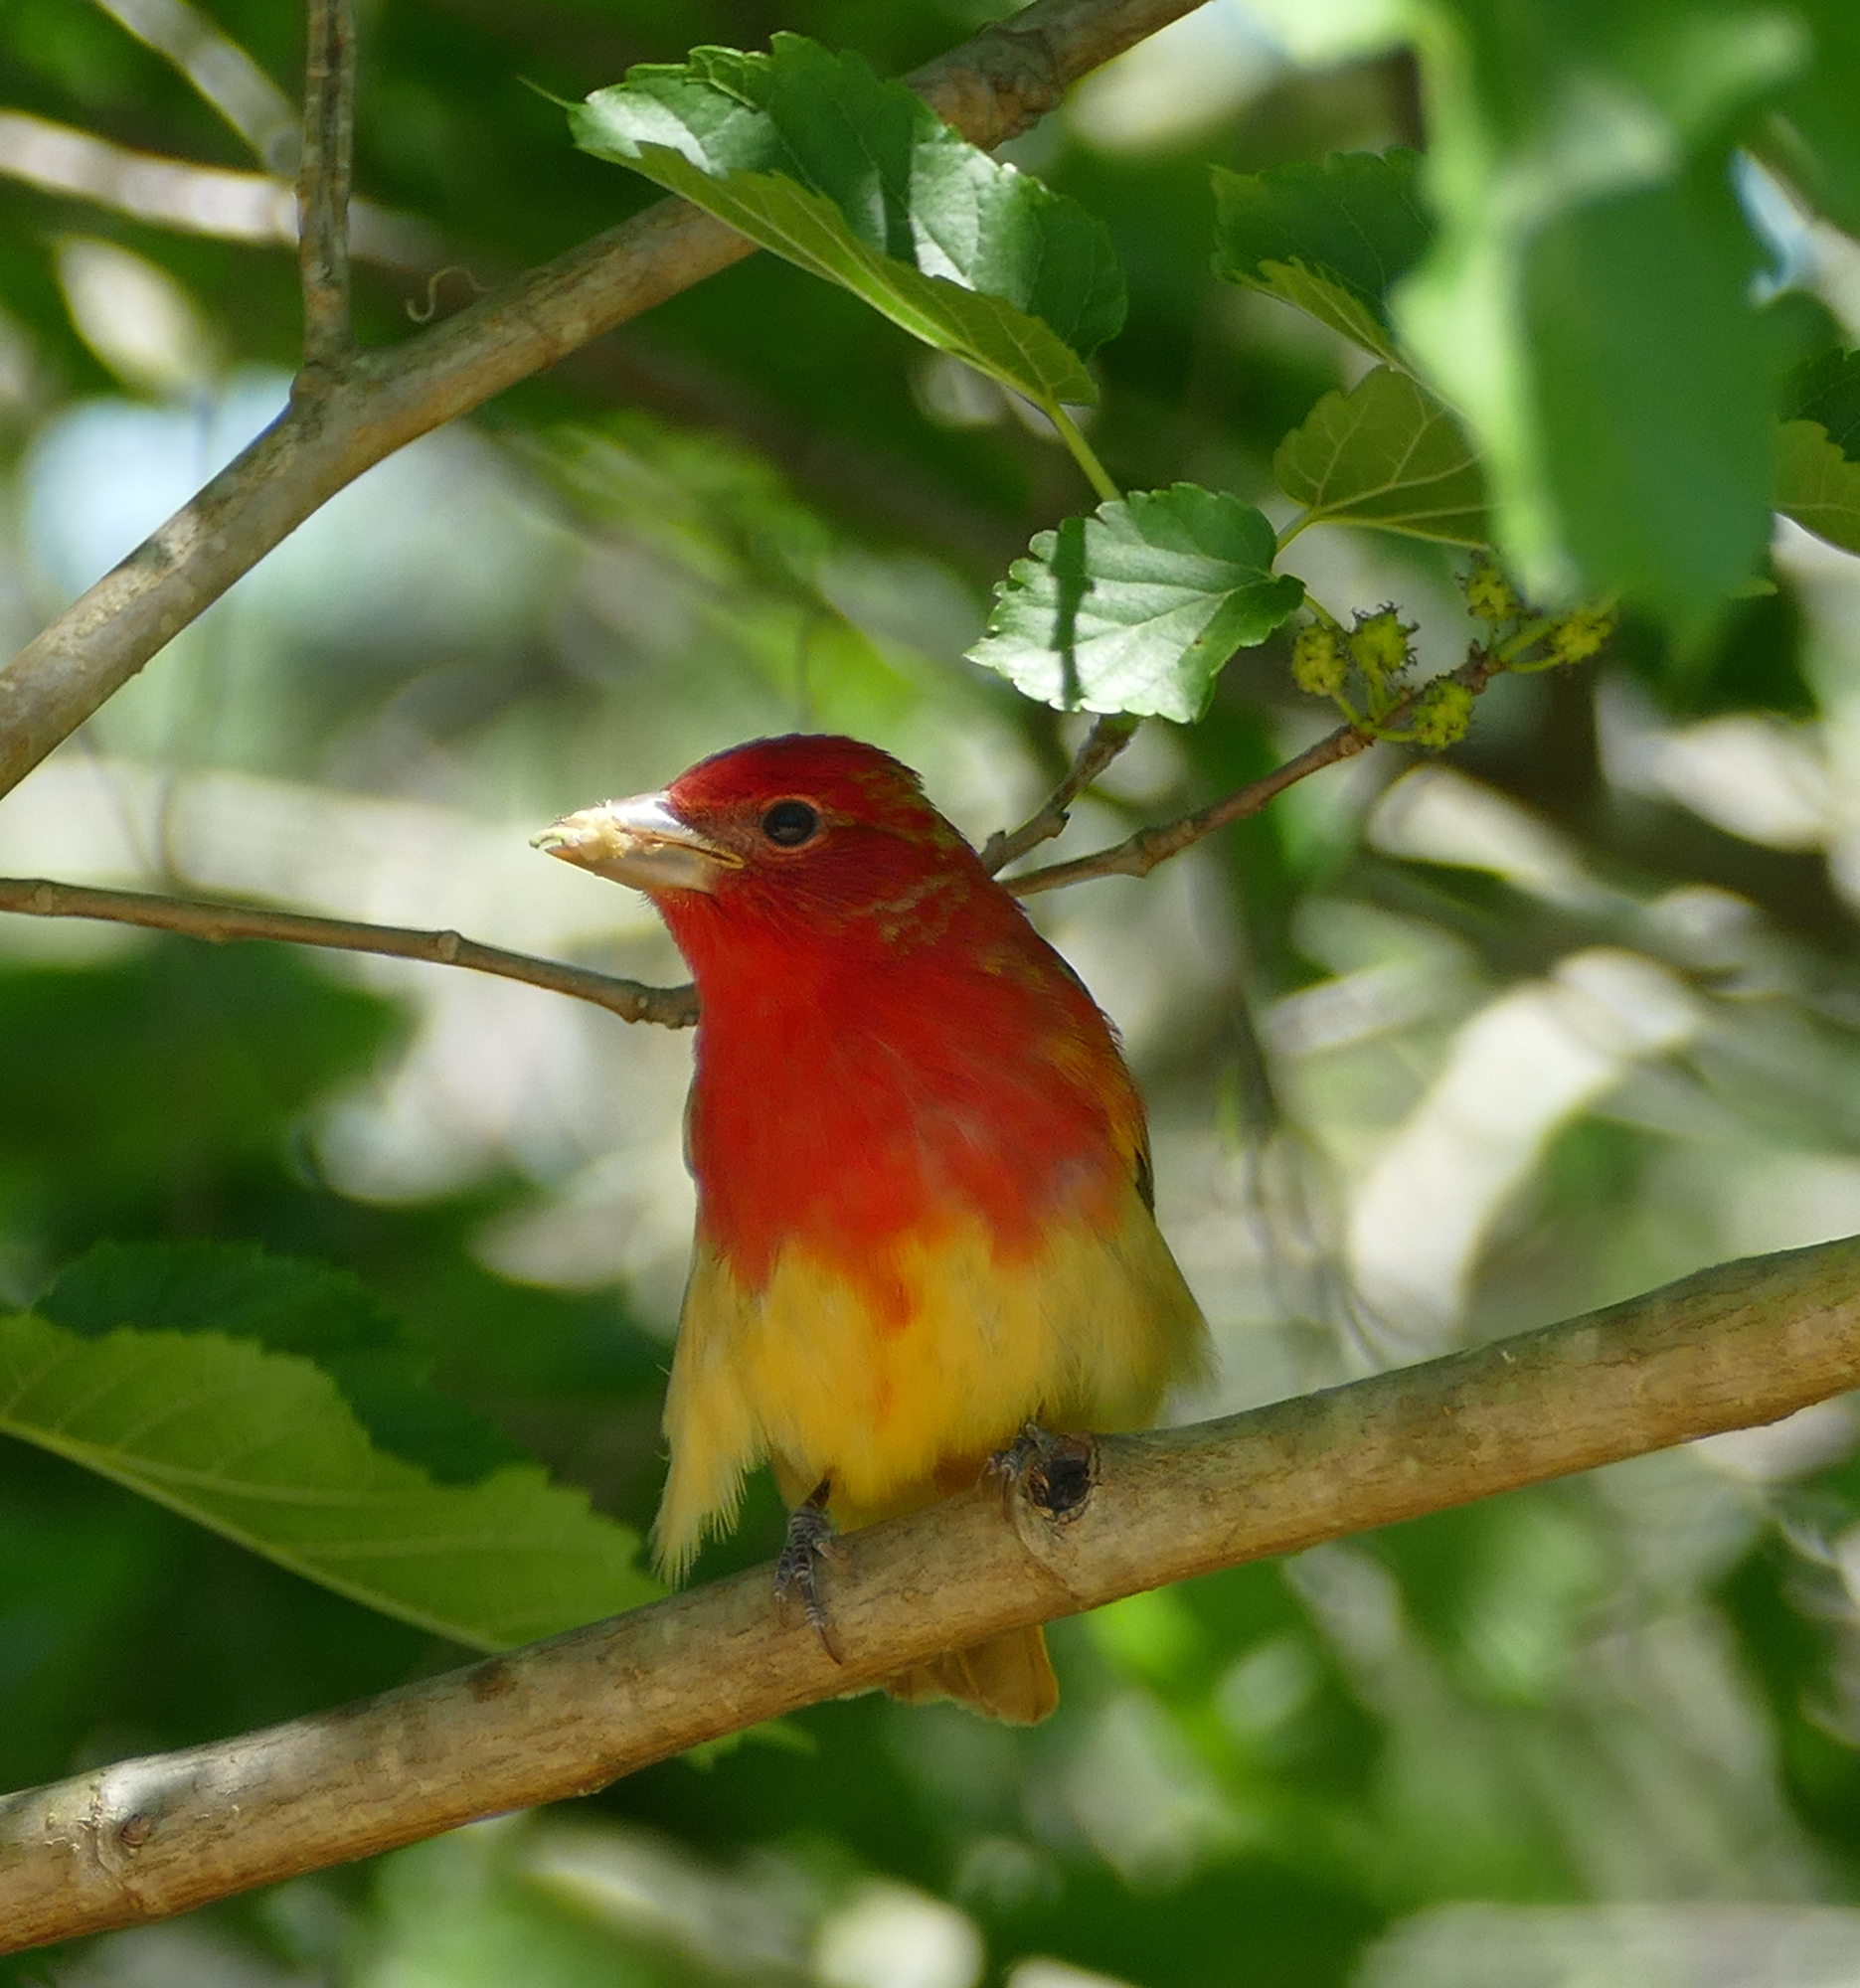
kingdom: Animalia
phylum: Chordata
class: Aves
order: Passeriformes
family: Cardinalidae
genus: Piranga
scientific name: Piranga rubra
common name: Summer tanager
